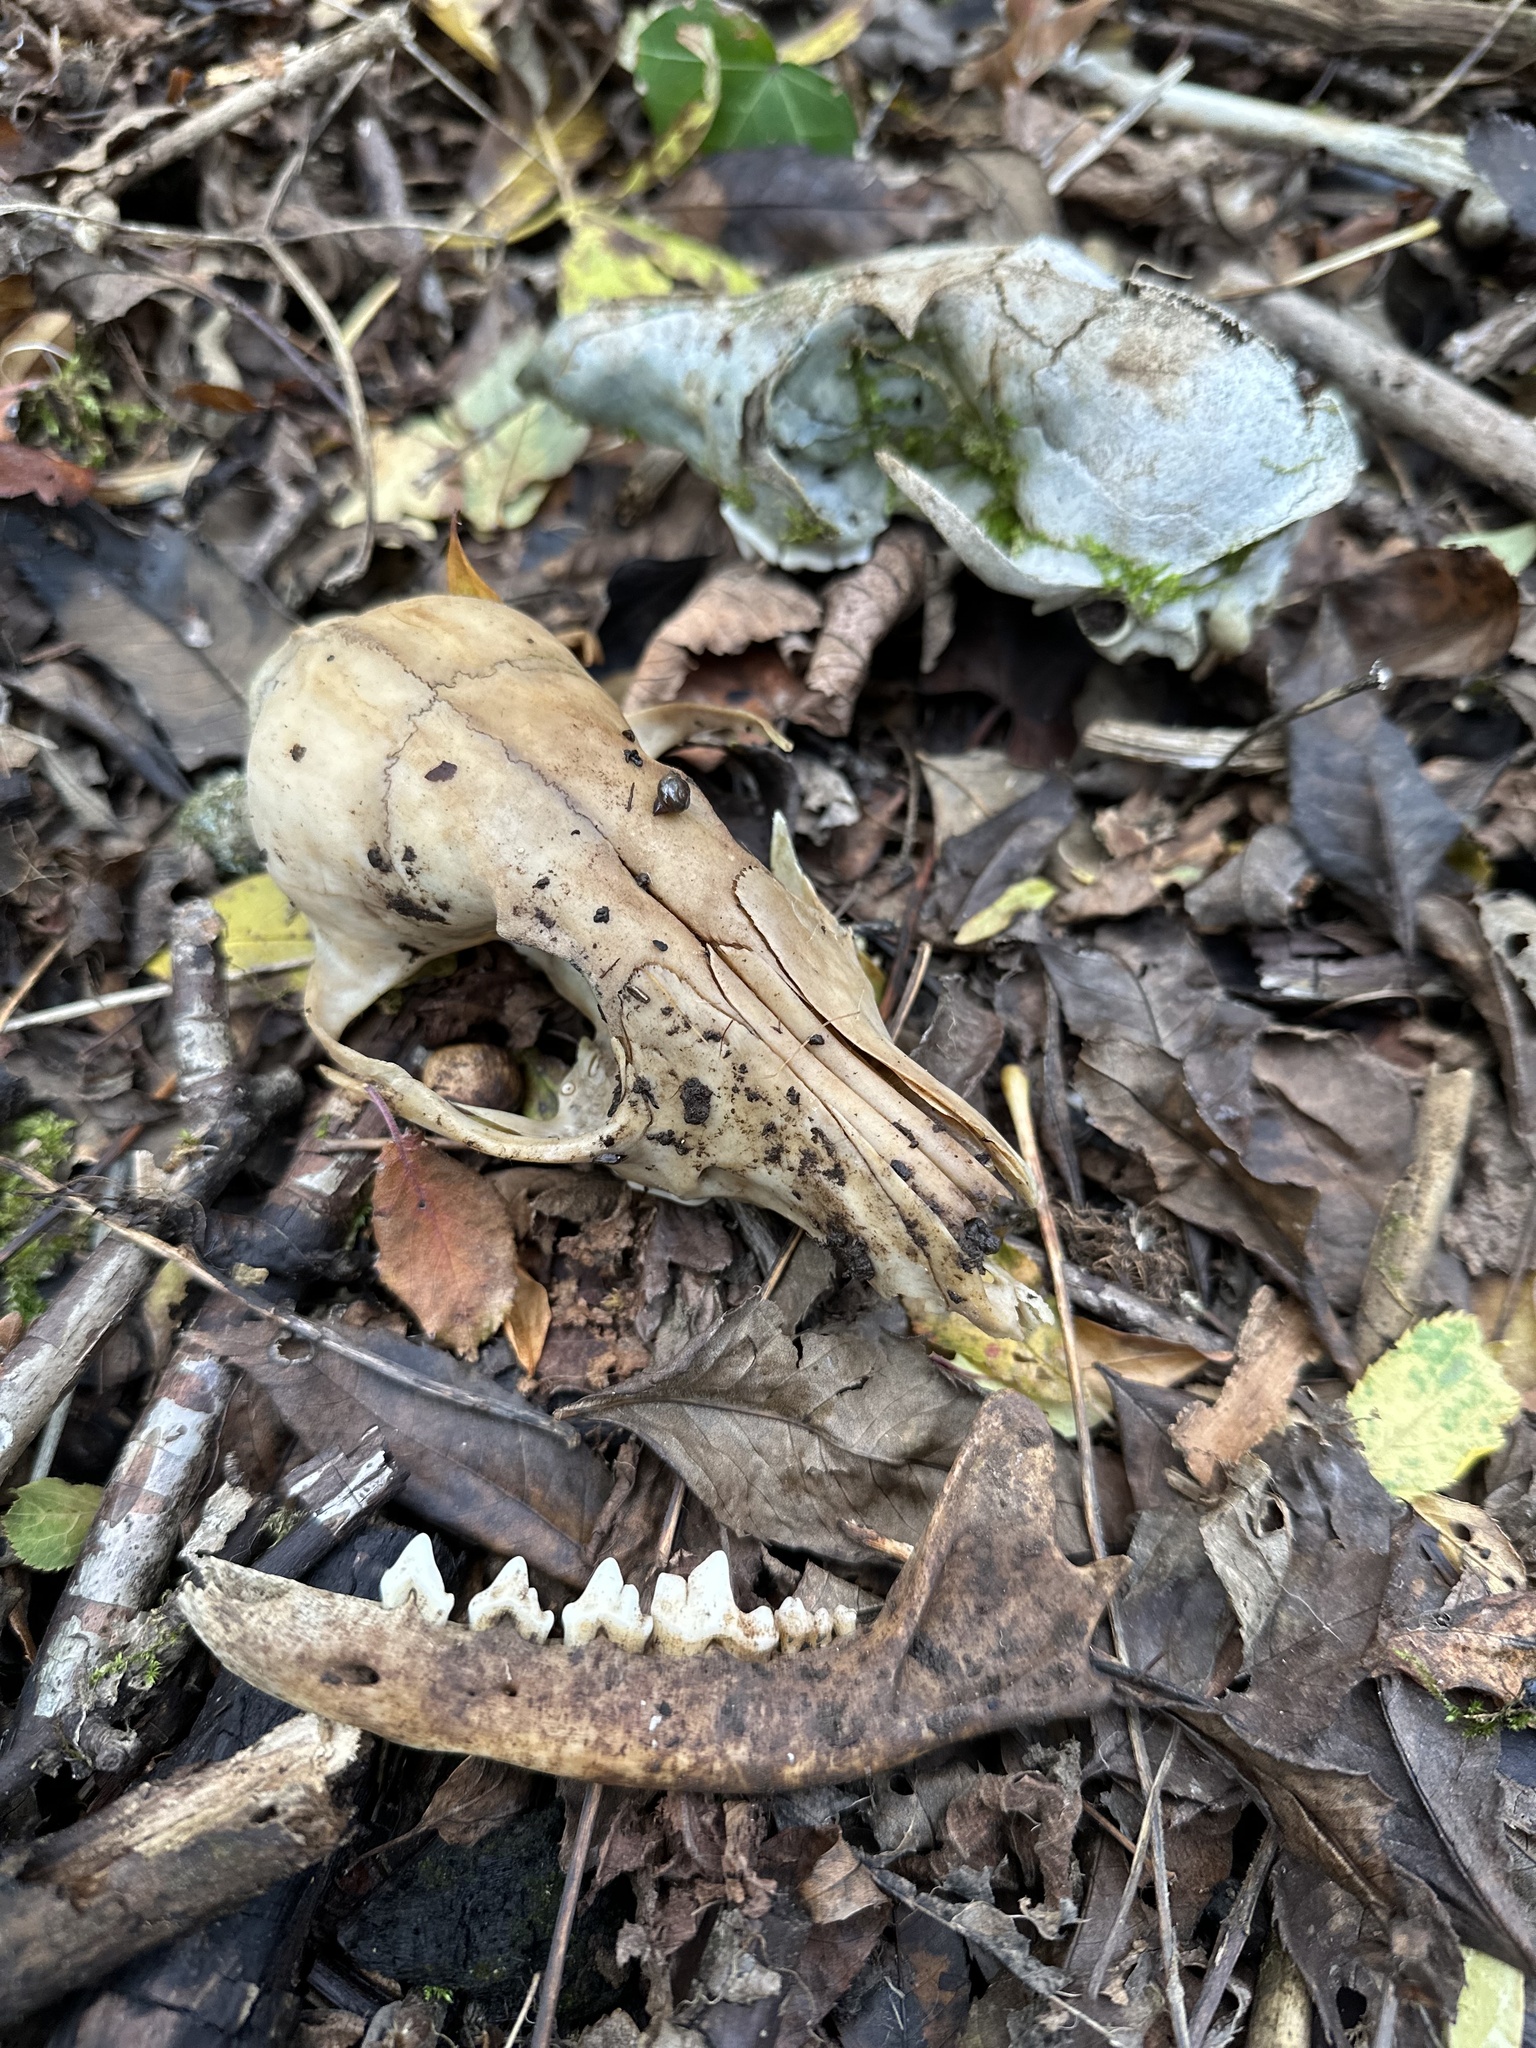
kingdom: Animalia
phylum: Chordata
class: Mammalia
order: Carnivora
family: Canidae
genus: Vulpes
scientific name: Vulpes vulpes
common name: Red fox
